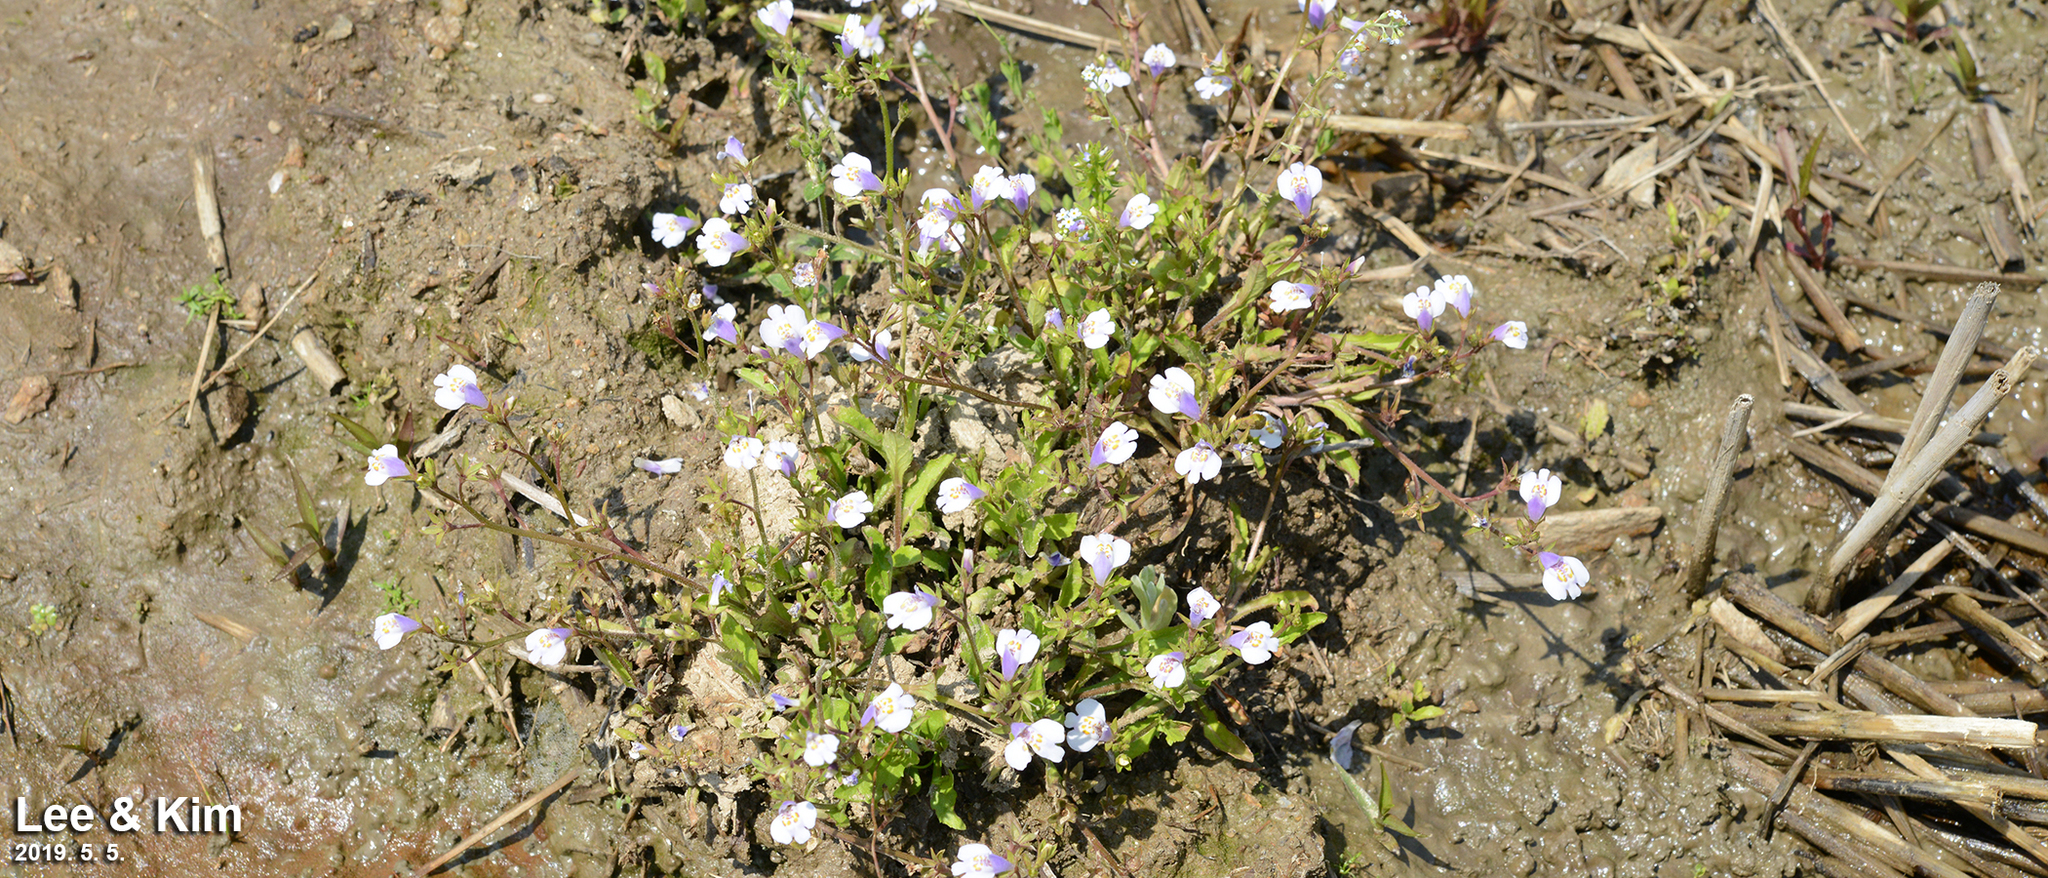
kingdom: Plantae
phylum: Tracheophyta
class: Magnoliopsida
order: Lamiales
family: Mazaceae
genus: Mazus
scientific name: Mazus pumilus
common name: Japanese mazus
